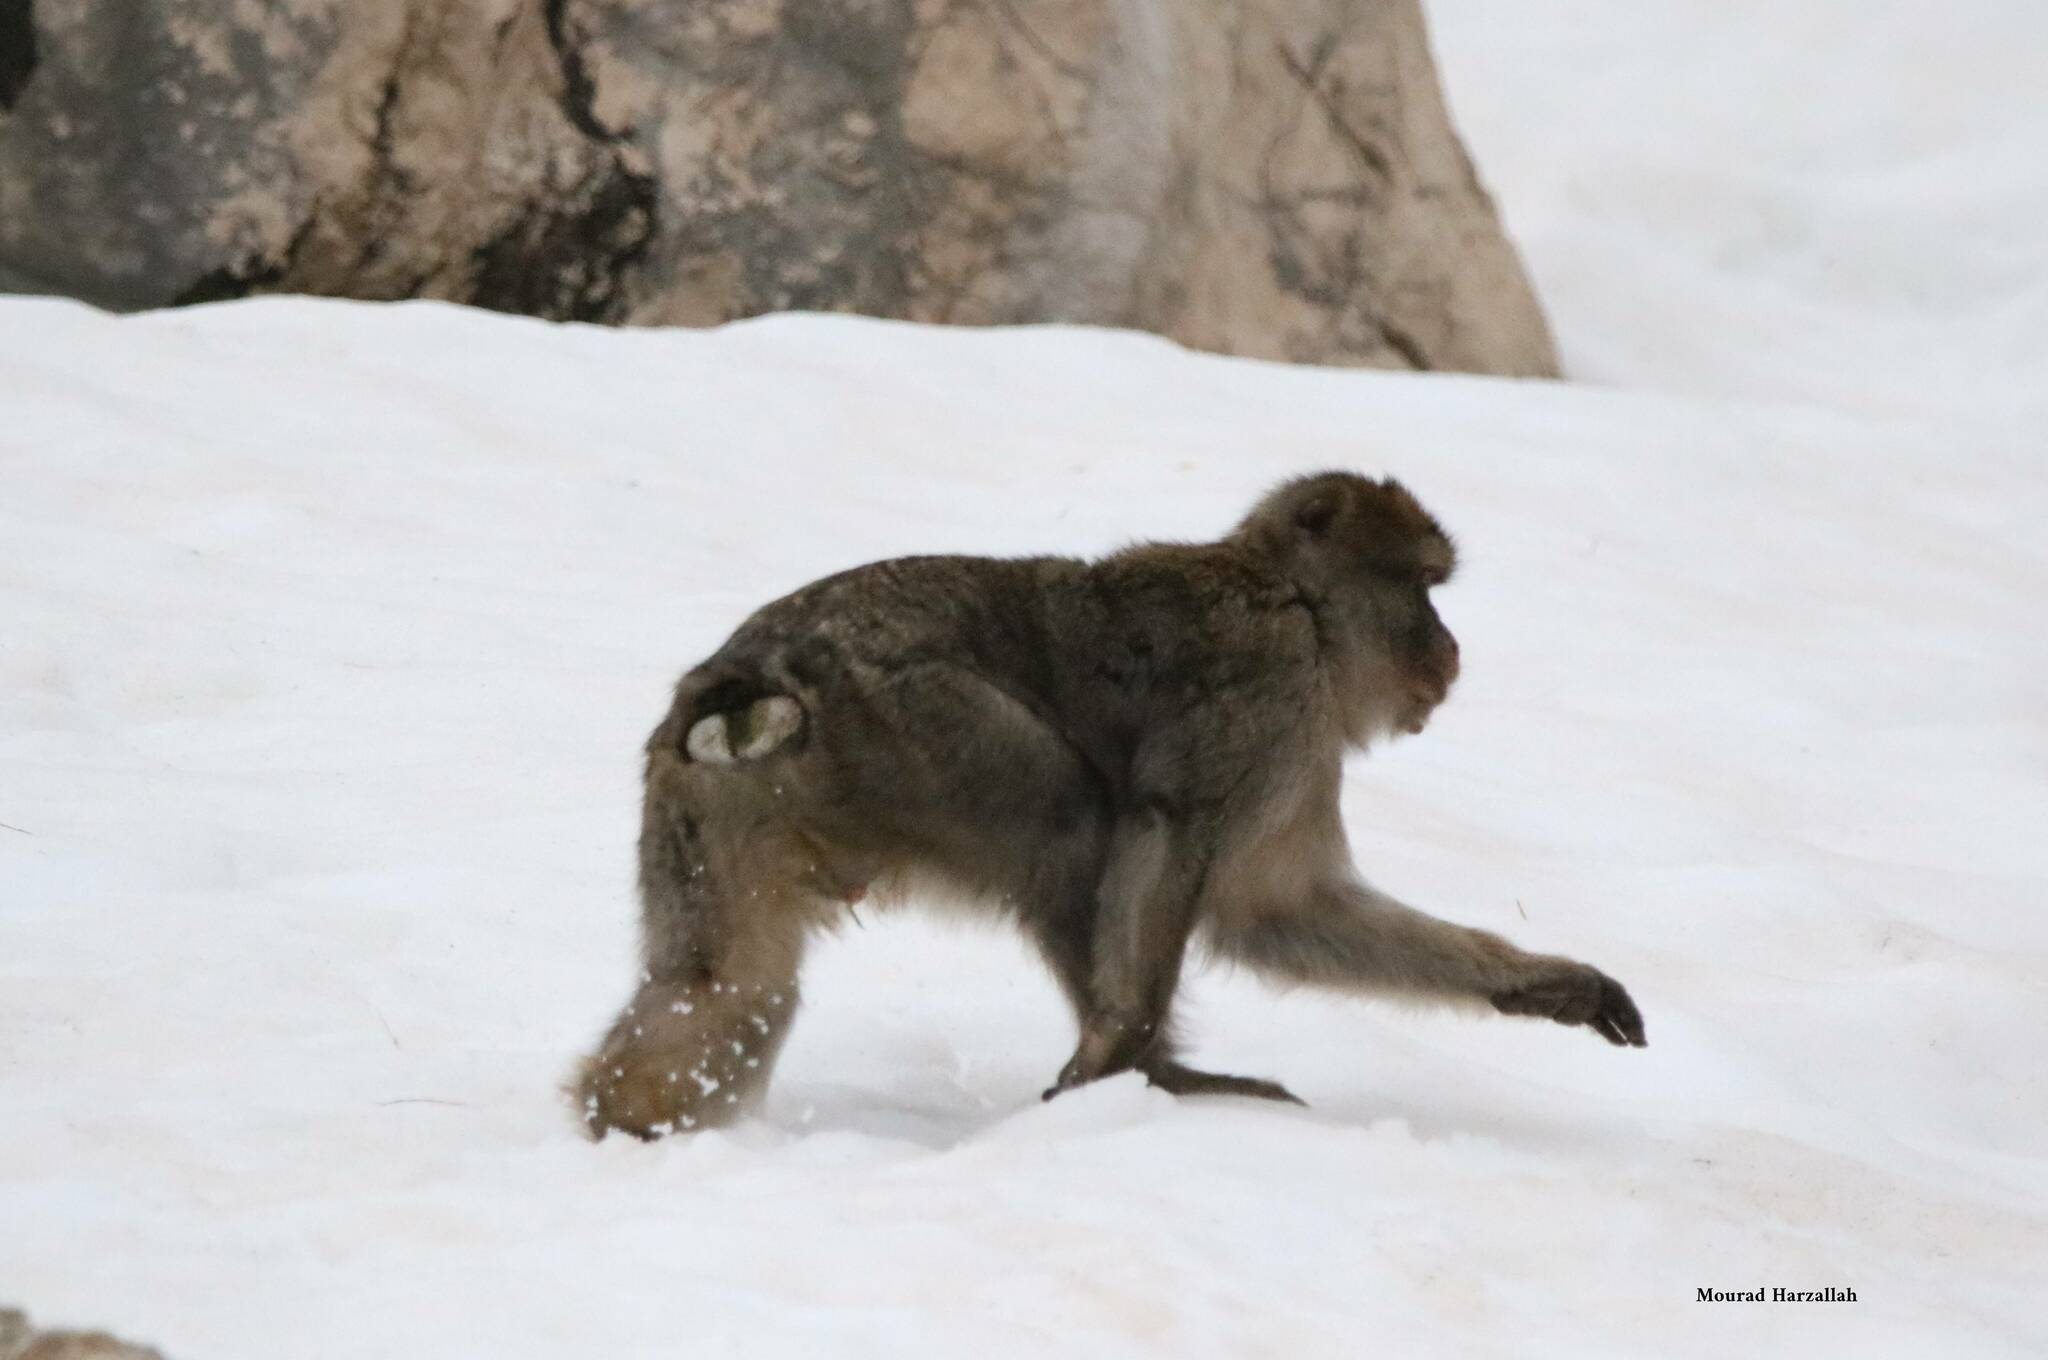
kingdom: Animalia
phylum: Chordata
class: Mammalia
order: Primates
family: Cercopithecidae
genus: Macaca
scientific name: Macaca sylvanus
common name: Barbary macaque
